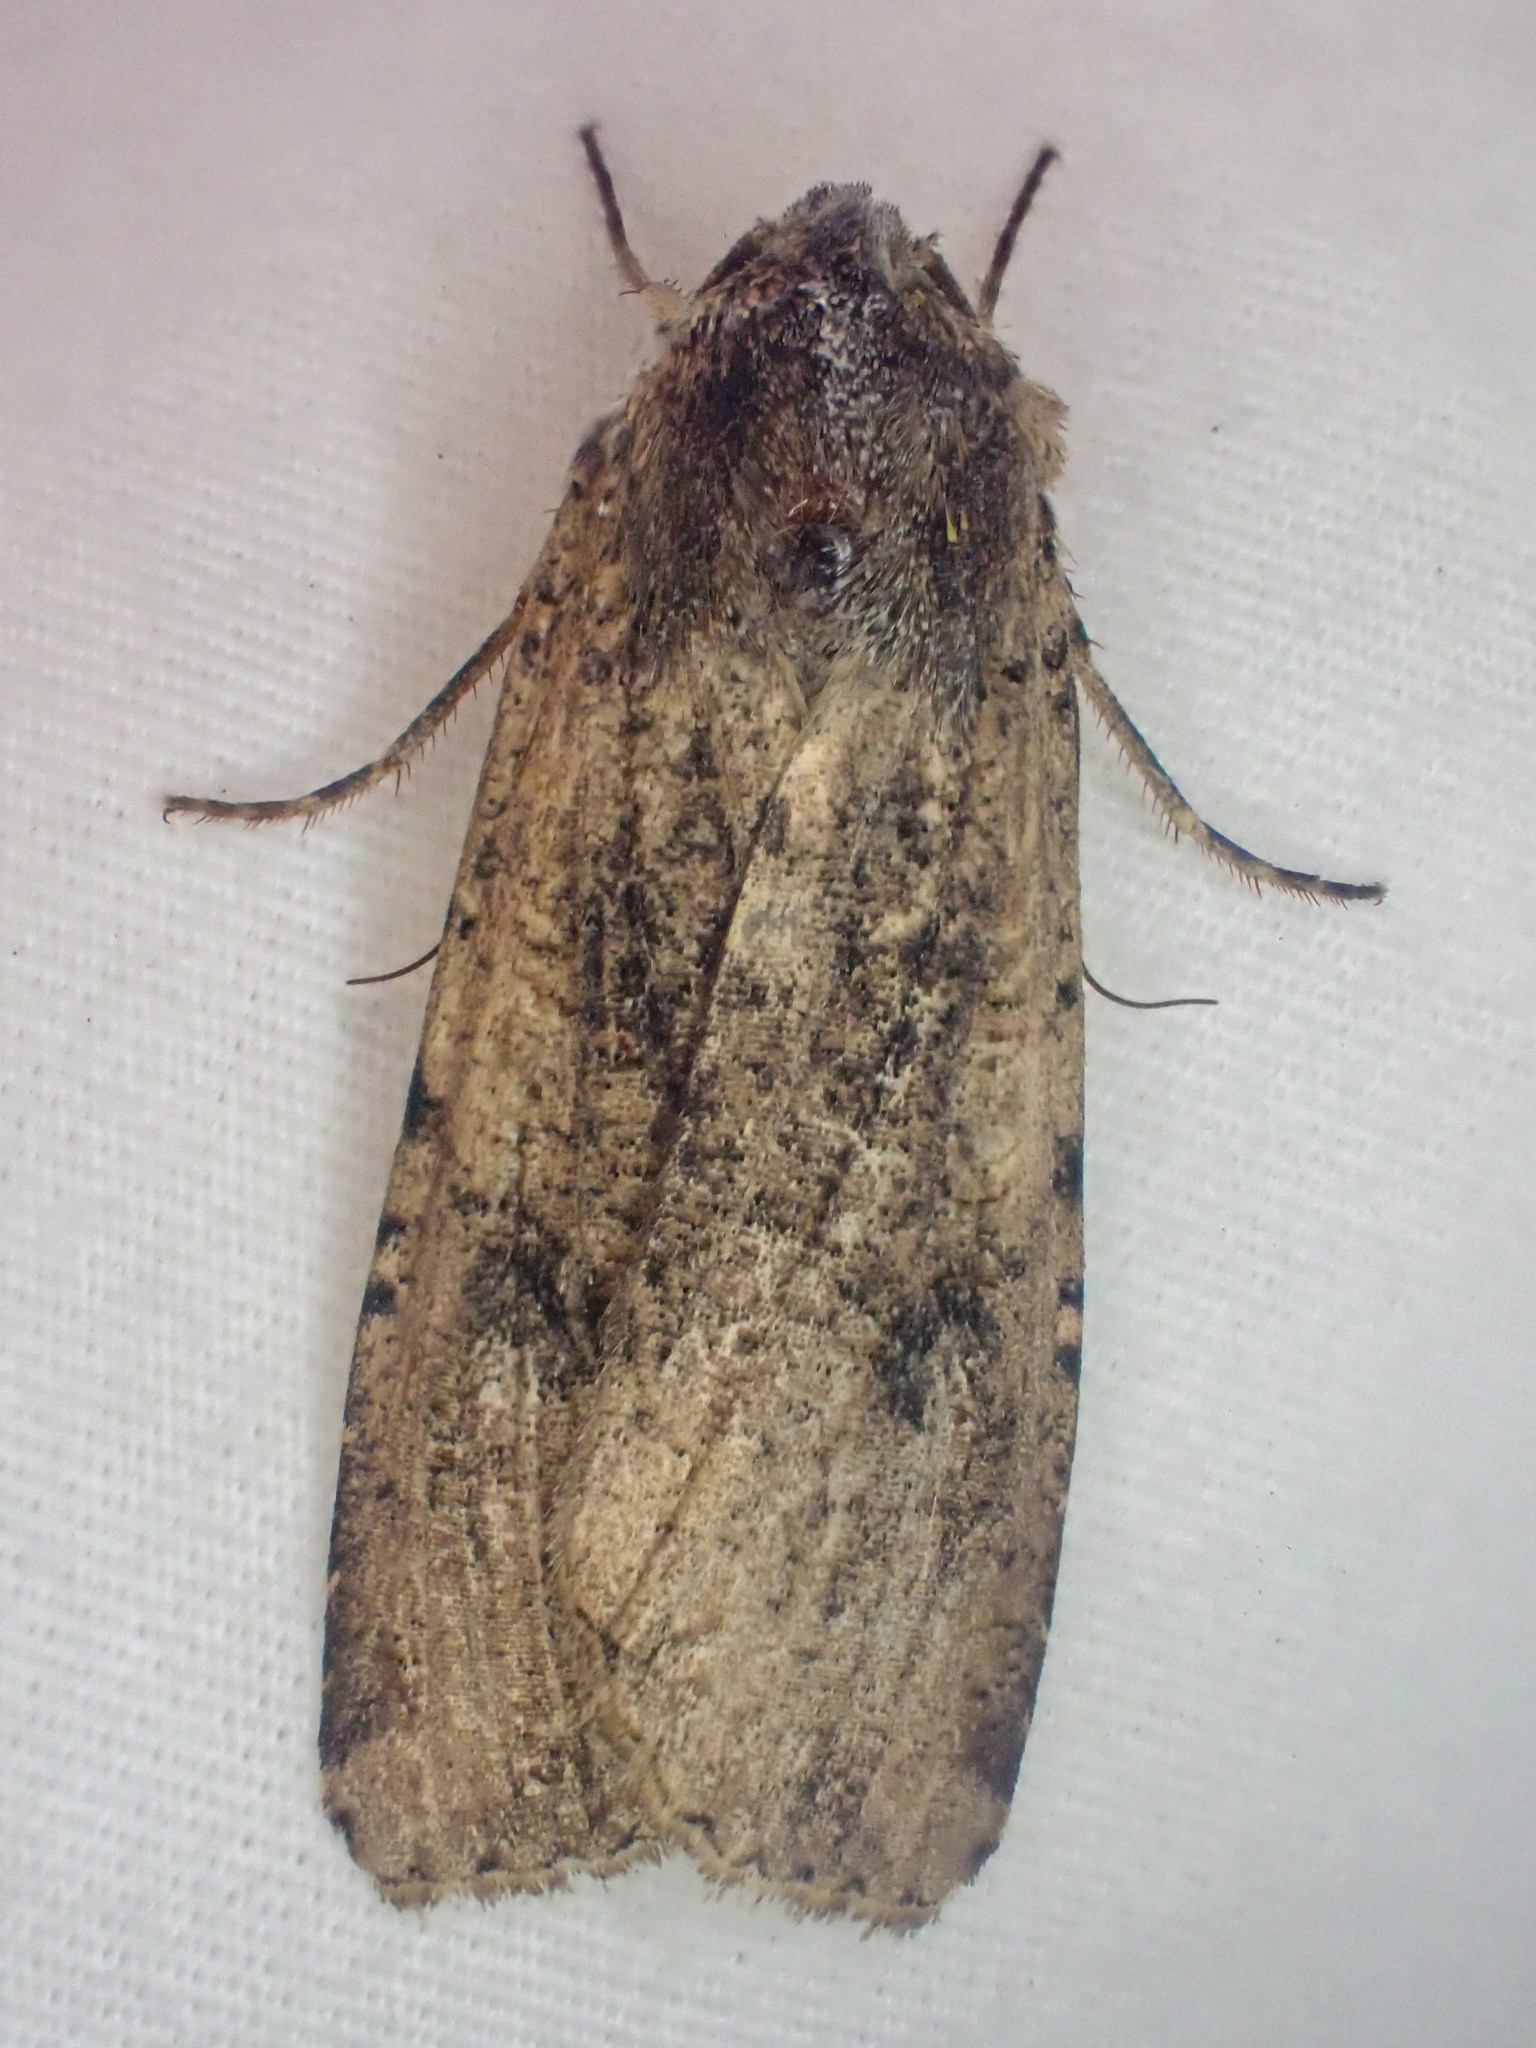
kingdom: Animalia
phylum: Arthropoda
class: Insecta
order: Lepidoptera
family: Noctuidae
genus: Peridroma
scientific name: Peridroma saucia
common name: Pearly underwing
